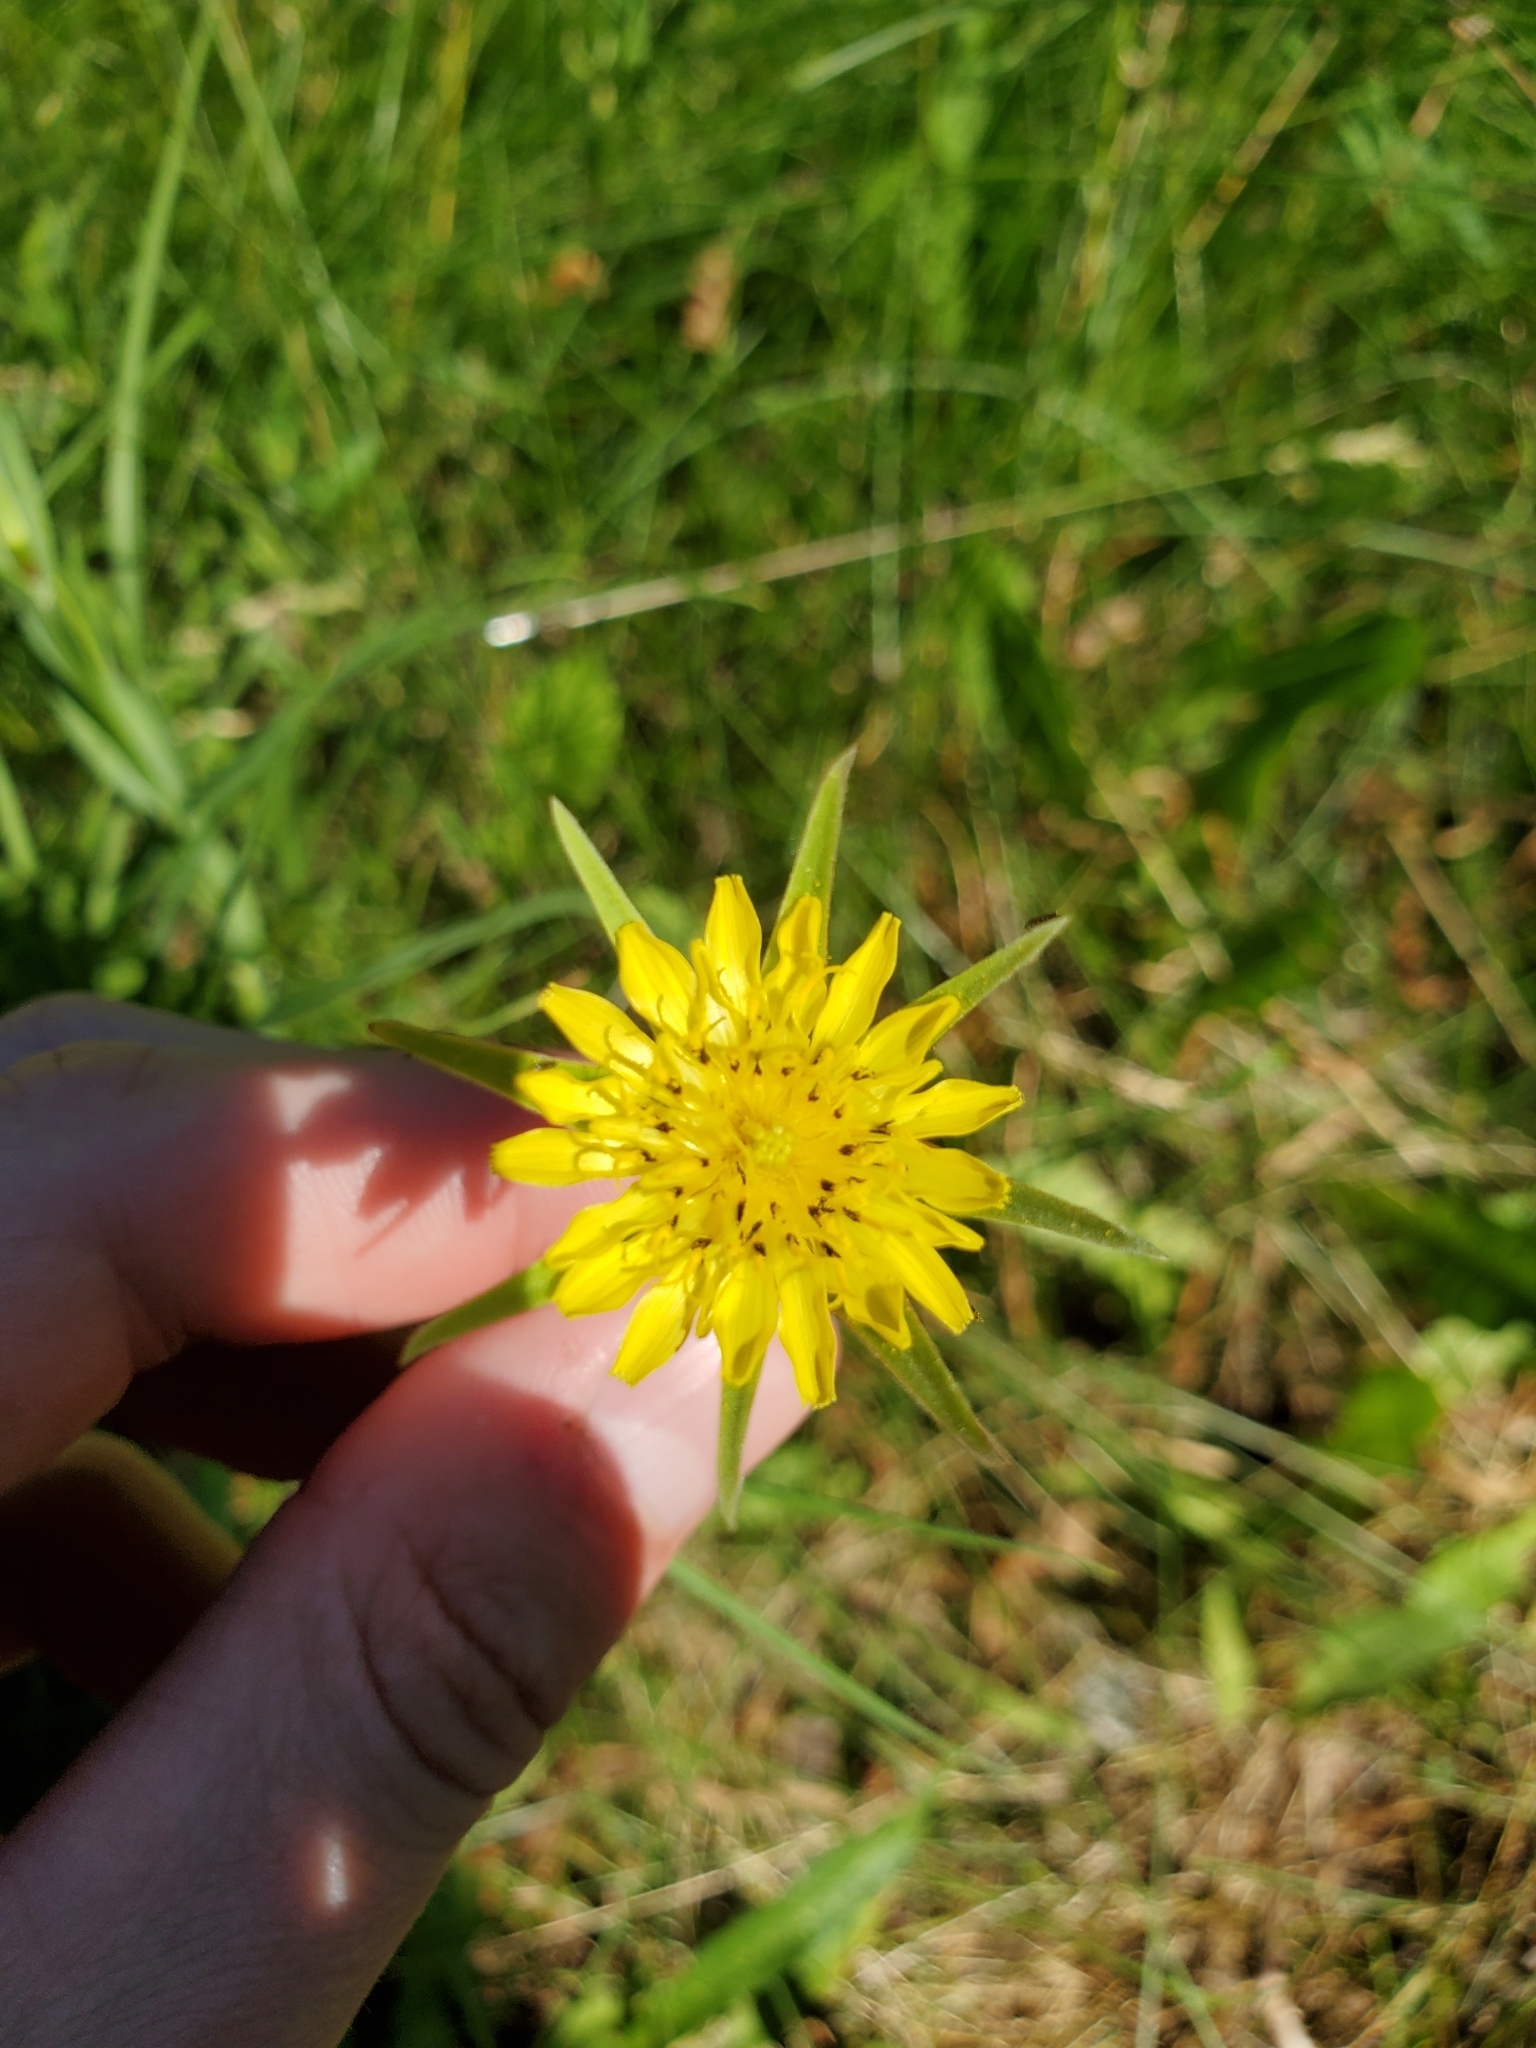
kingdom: Plantae
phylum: Tracheophyta
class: Magnoliopsida
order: Asterales
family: Asteraceae
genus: Tragopogon
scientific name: Tragopogon dubius
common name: Yellow salsify
